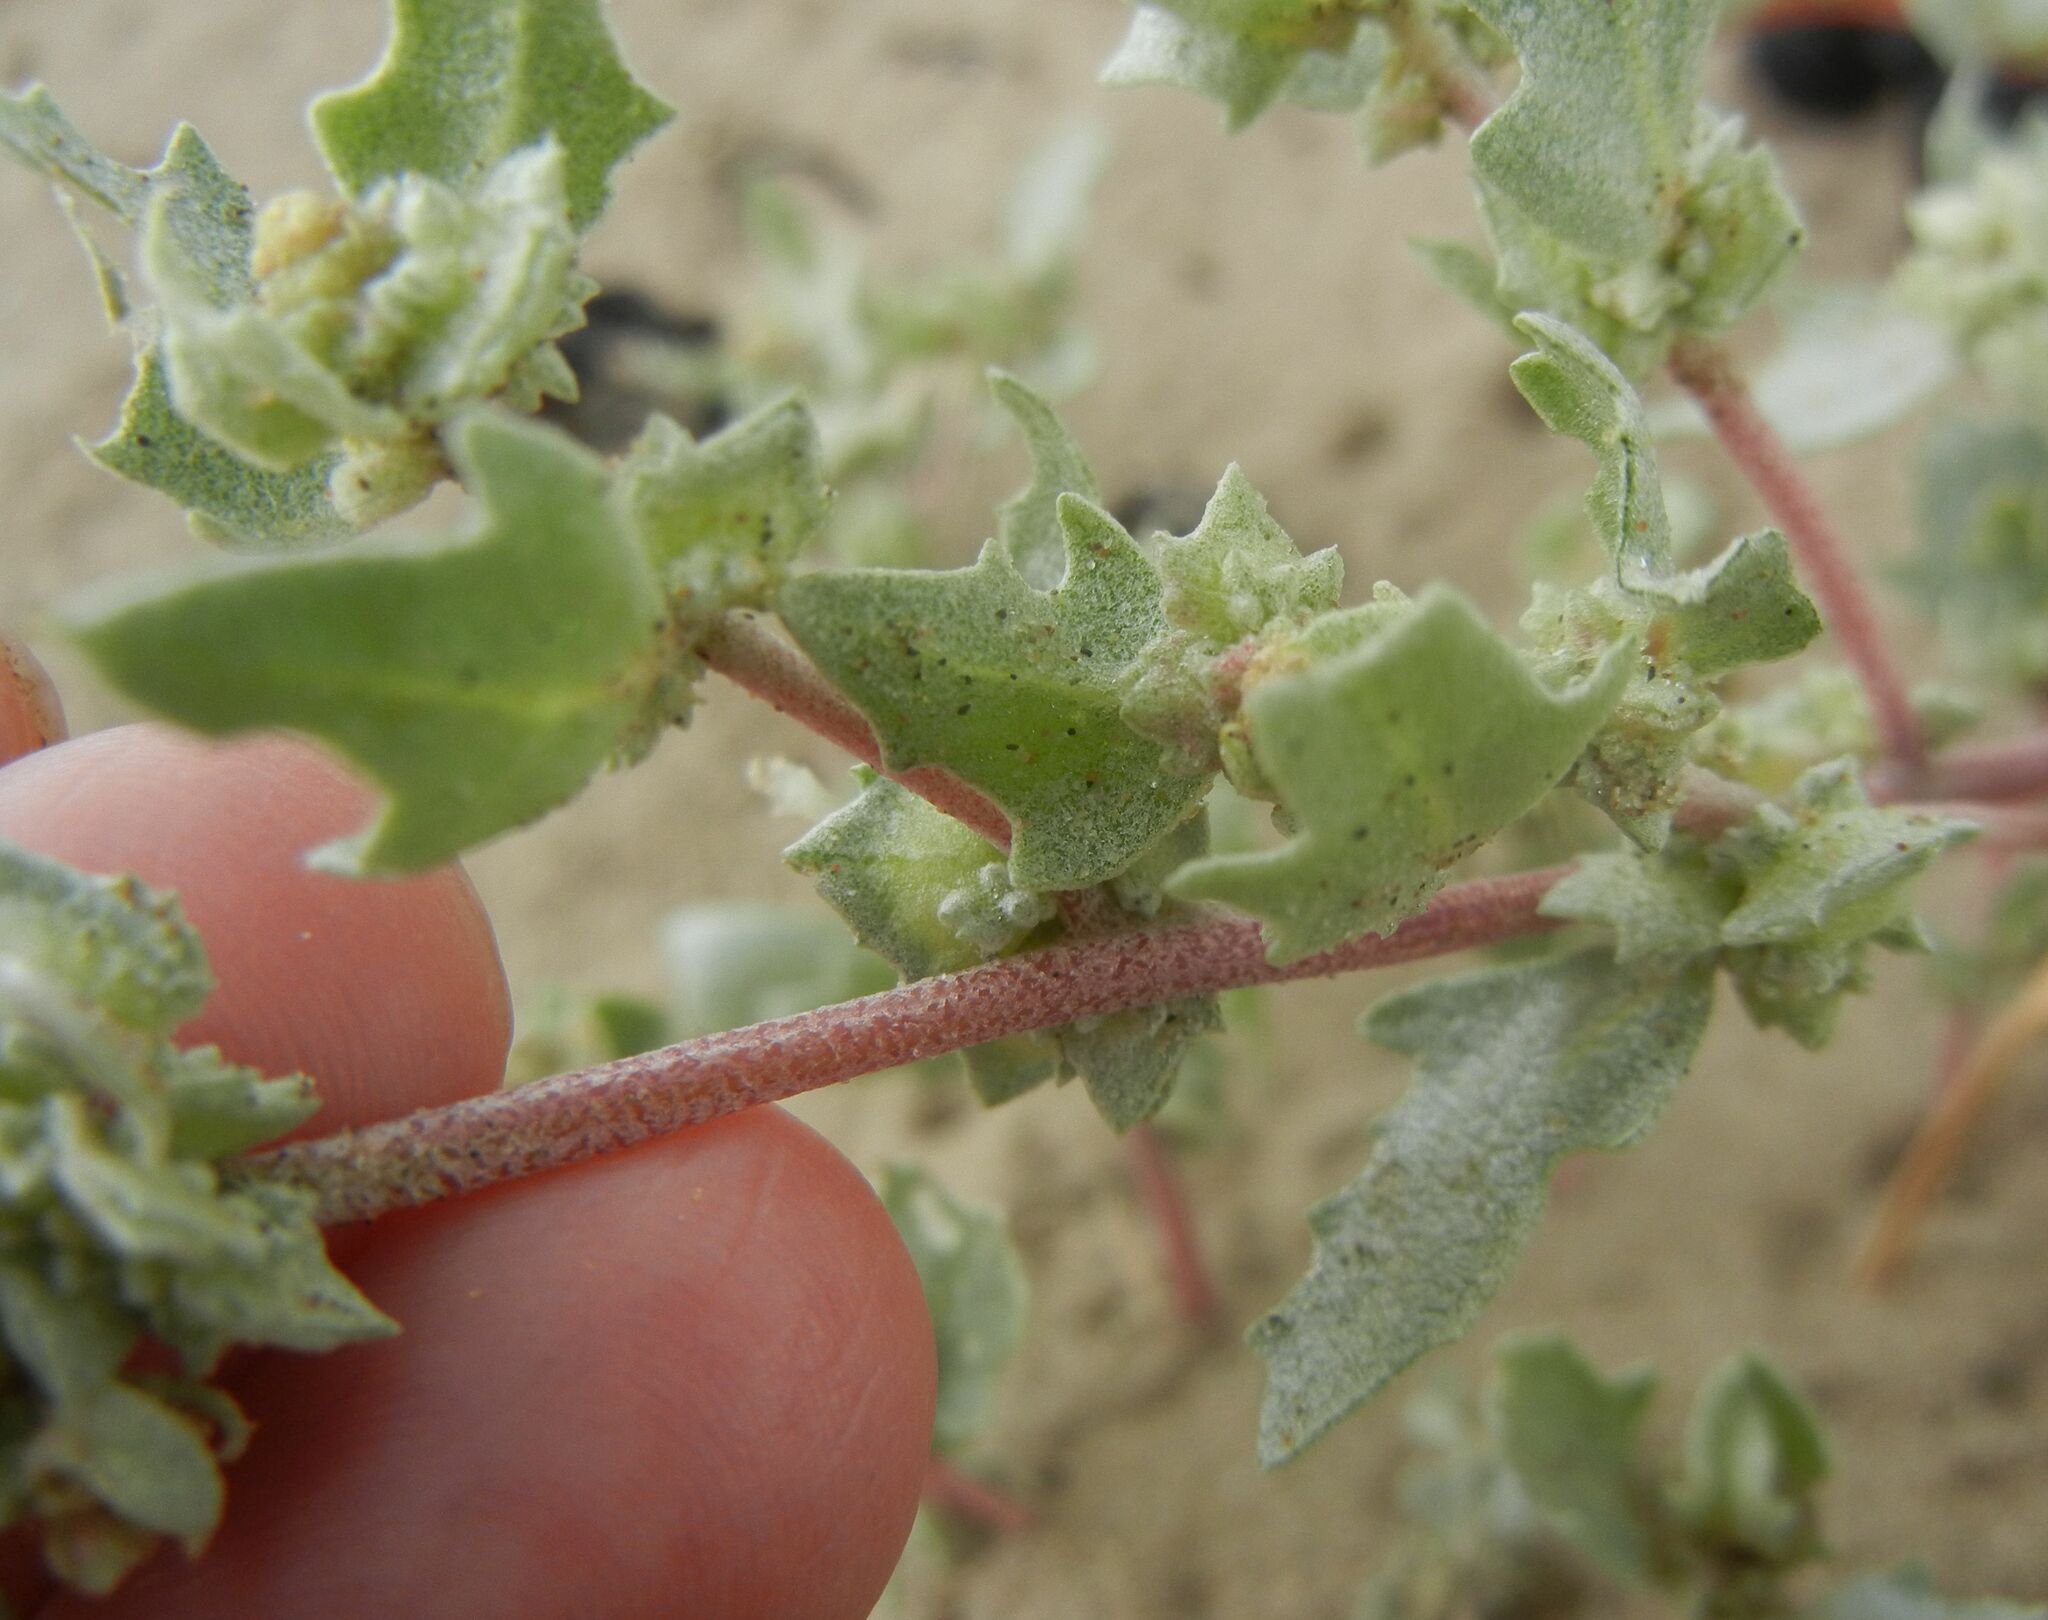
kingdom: Plantae
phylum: Tracheophyta
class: Magnoliopsida
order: Caryophyllales
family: Amaranthaceae
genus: Atriplex
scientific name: Atriplex laciniata
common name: Frosted orache
